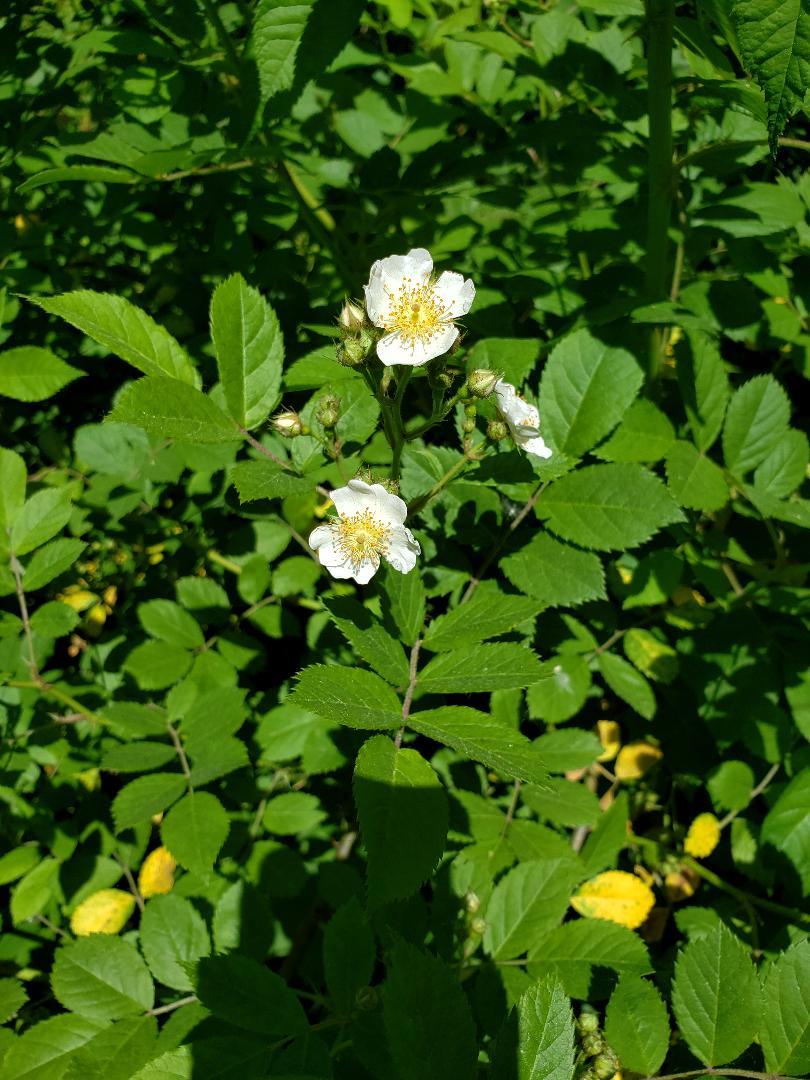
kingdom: Plantae
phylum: Tracheophyta
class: Magnoliopsida
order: Rosales
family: Rosaceae
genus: Rosa
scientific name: Rosa multiflora
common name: Multiflora rose
